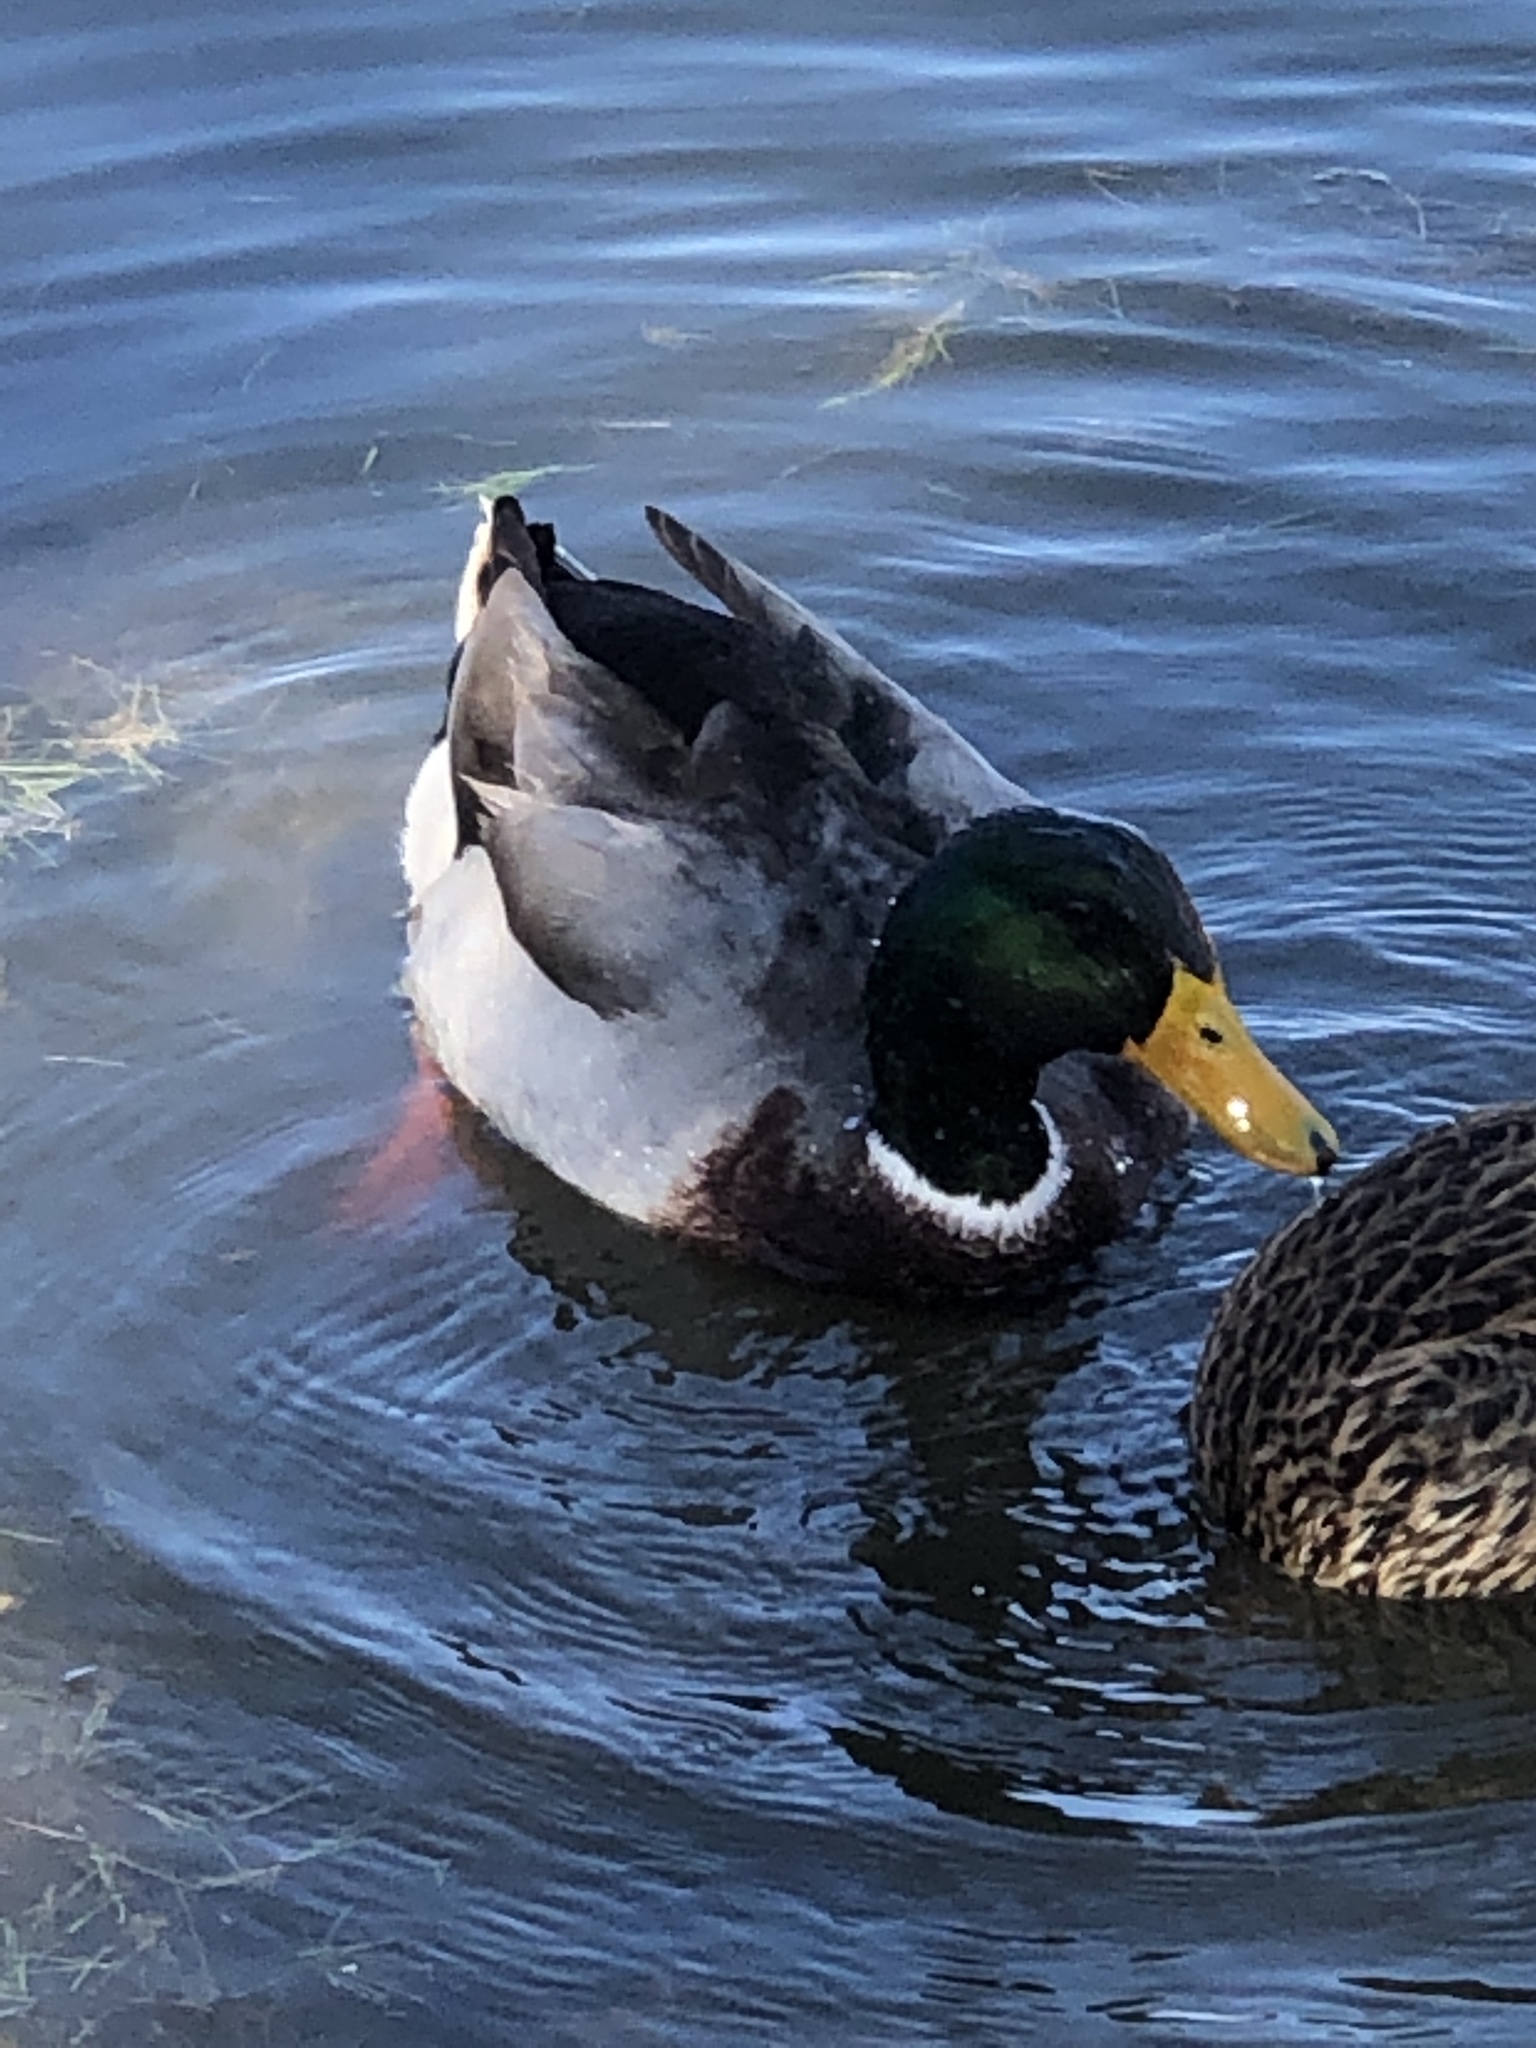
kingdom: Animalia
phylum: Chordata
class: Aves
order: Anseriformes
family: Anatidae
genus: Anas
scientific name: Anas platyrhynchos
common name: Mallard
